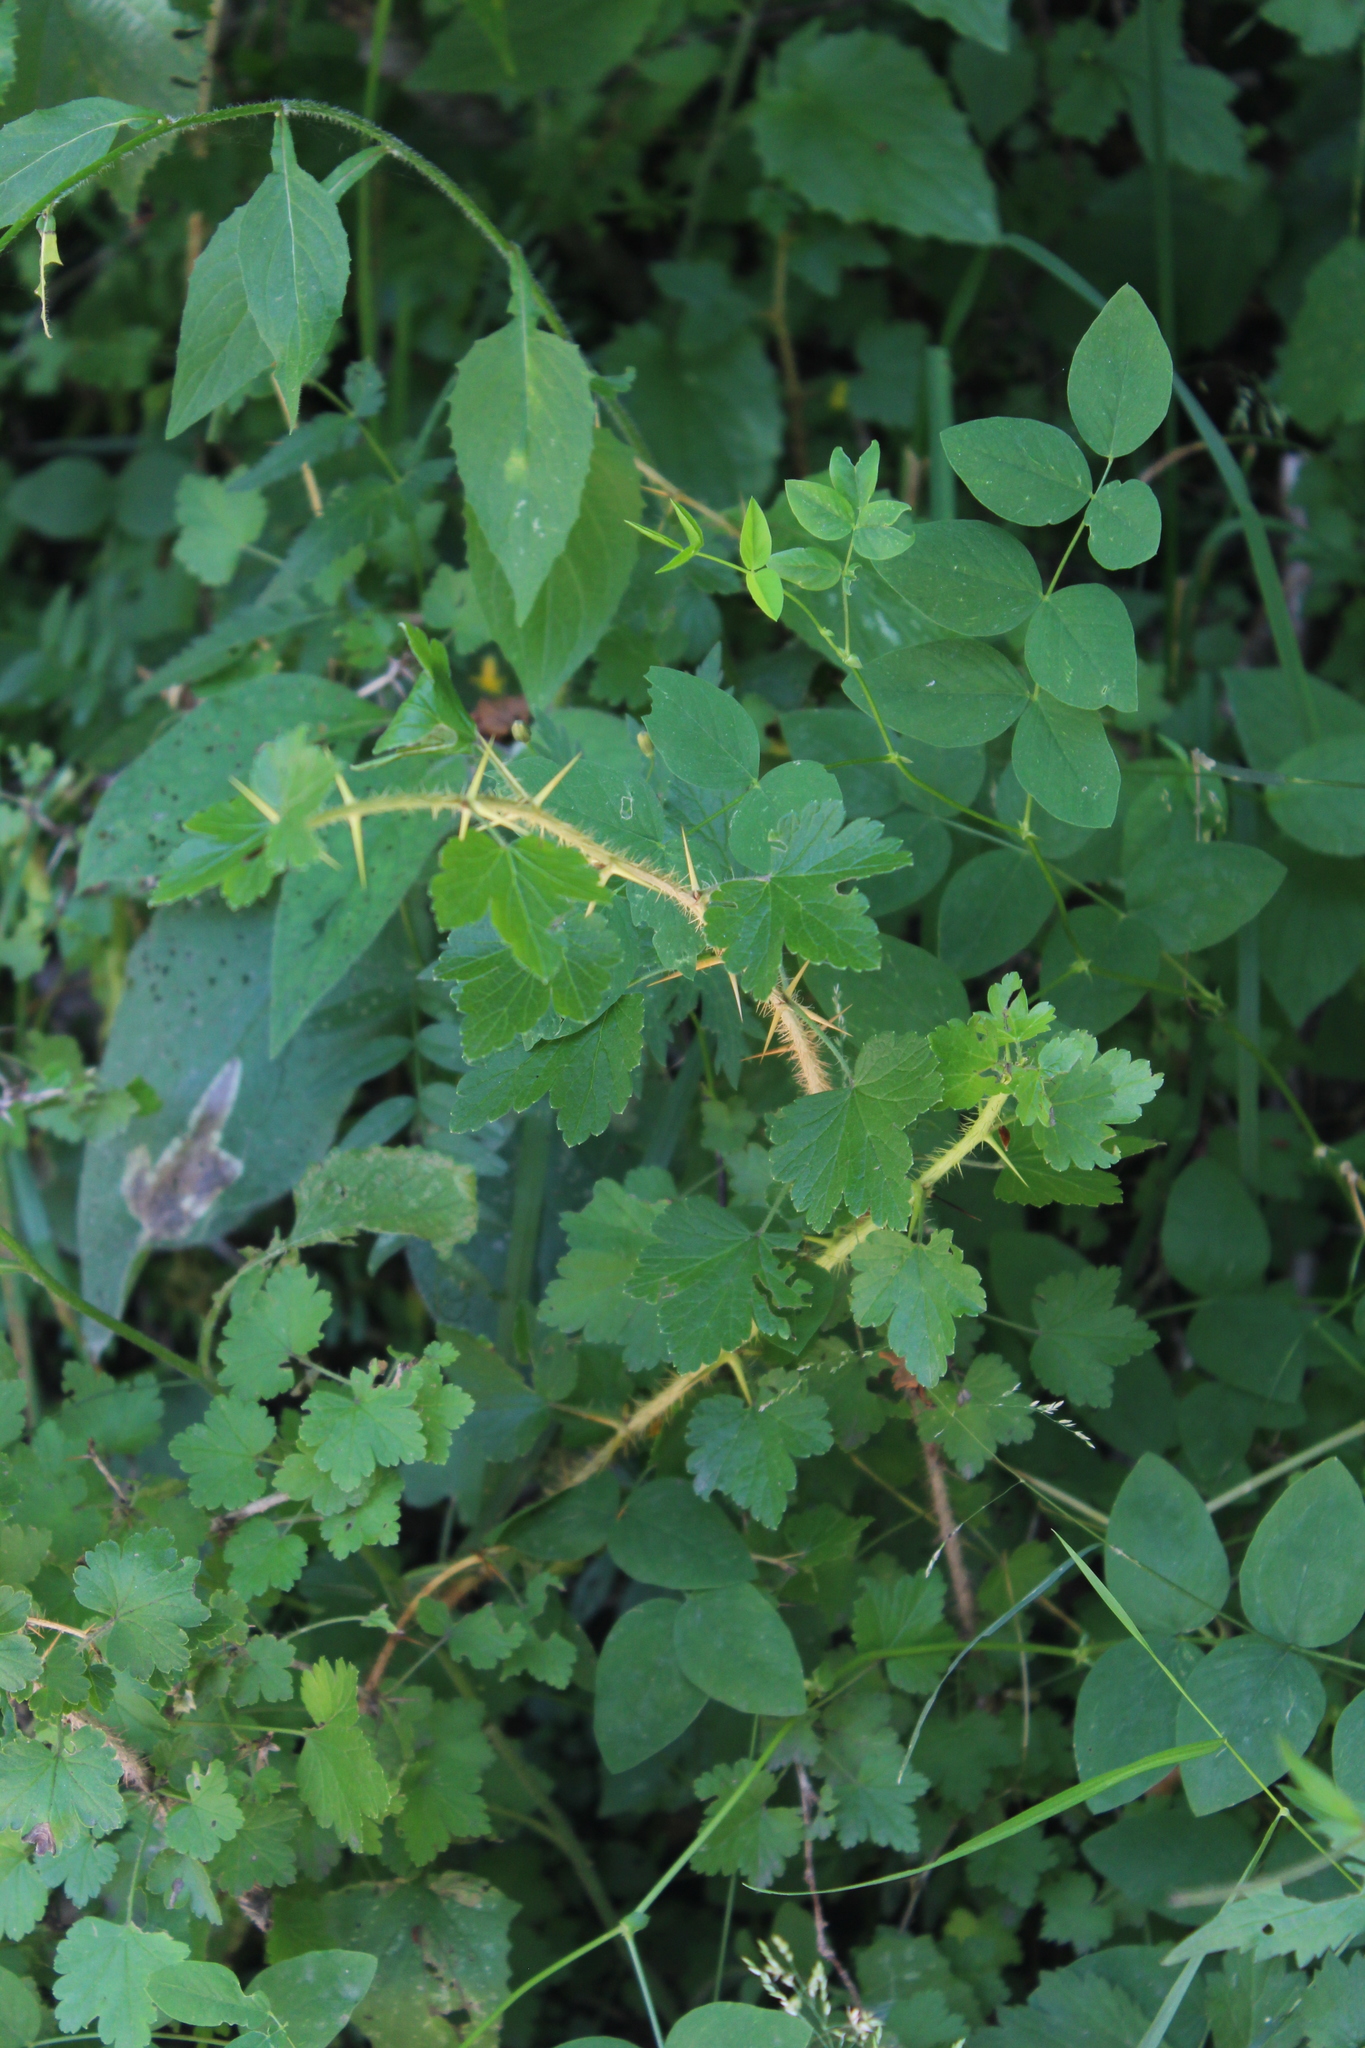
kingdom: Plantae
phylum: Tracheophyta
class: Magnoliopsida
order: Saxifragales
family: Grossulariaceae
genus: Ribes
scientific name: Ribes uva-crispa
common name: Gooseberry
